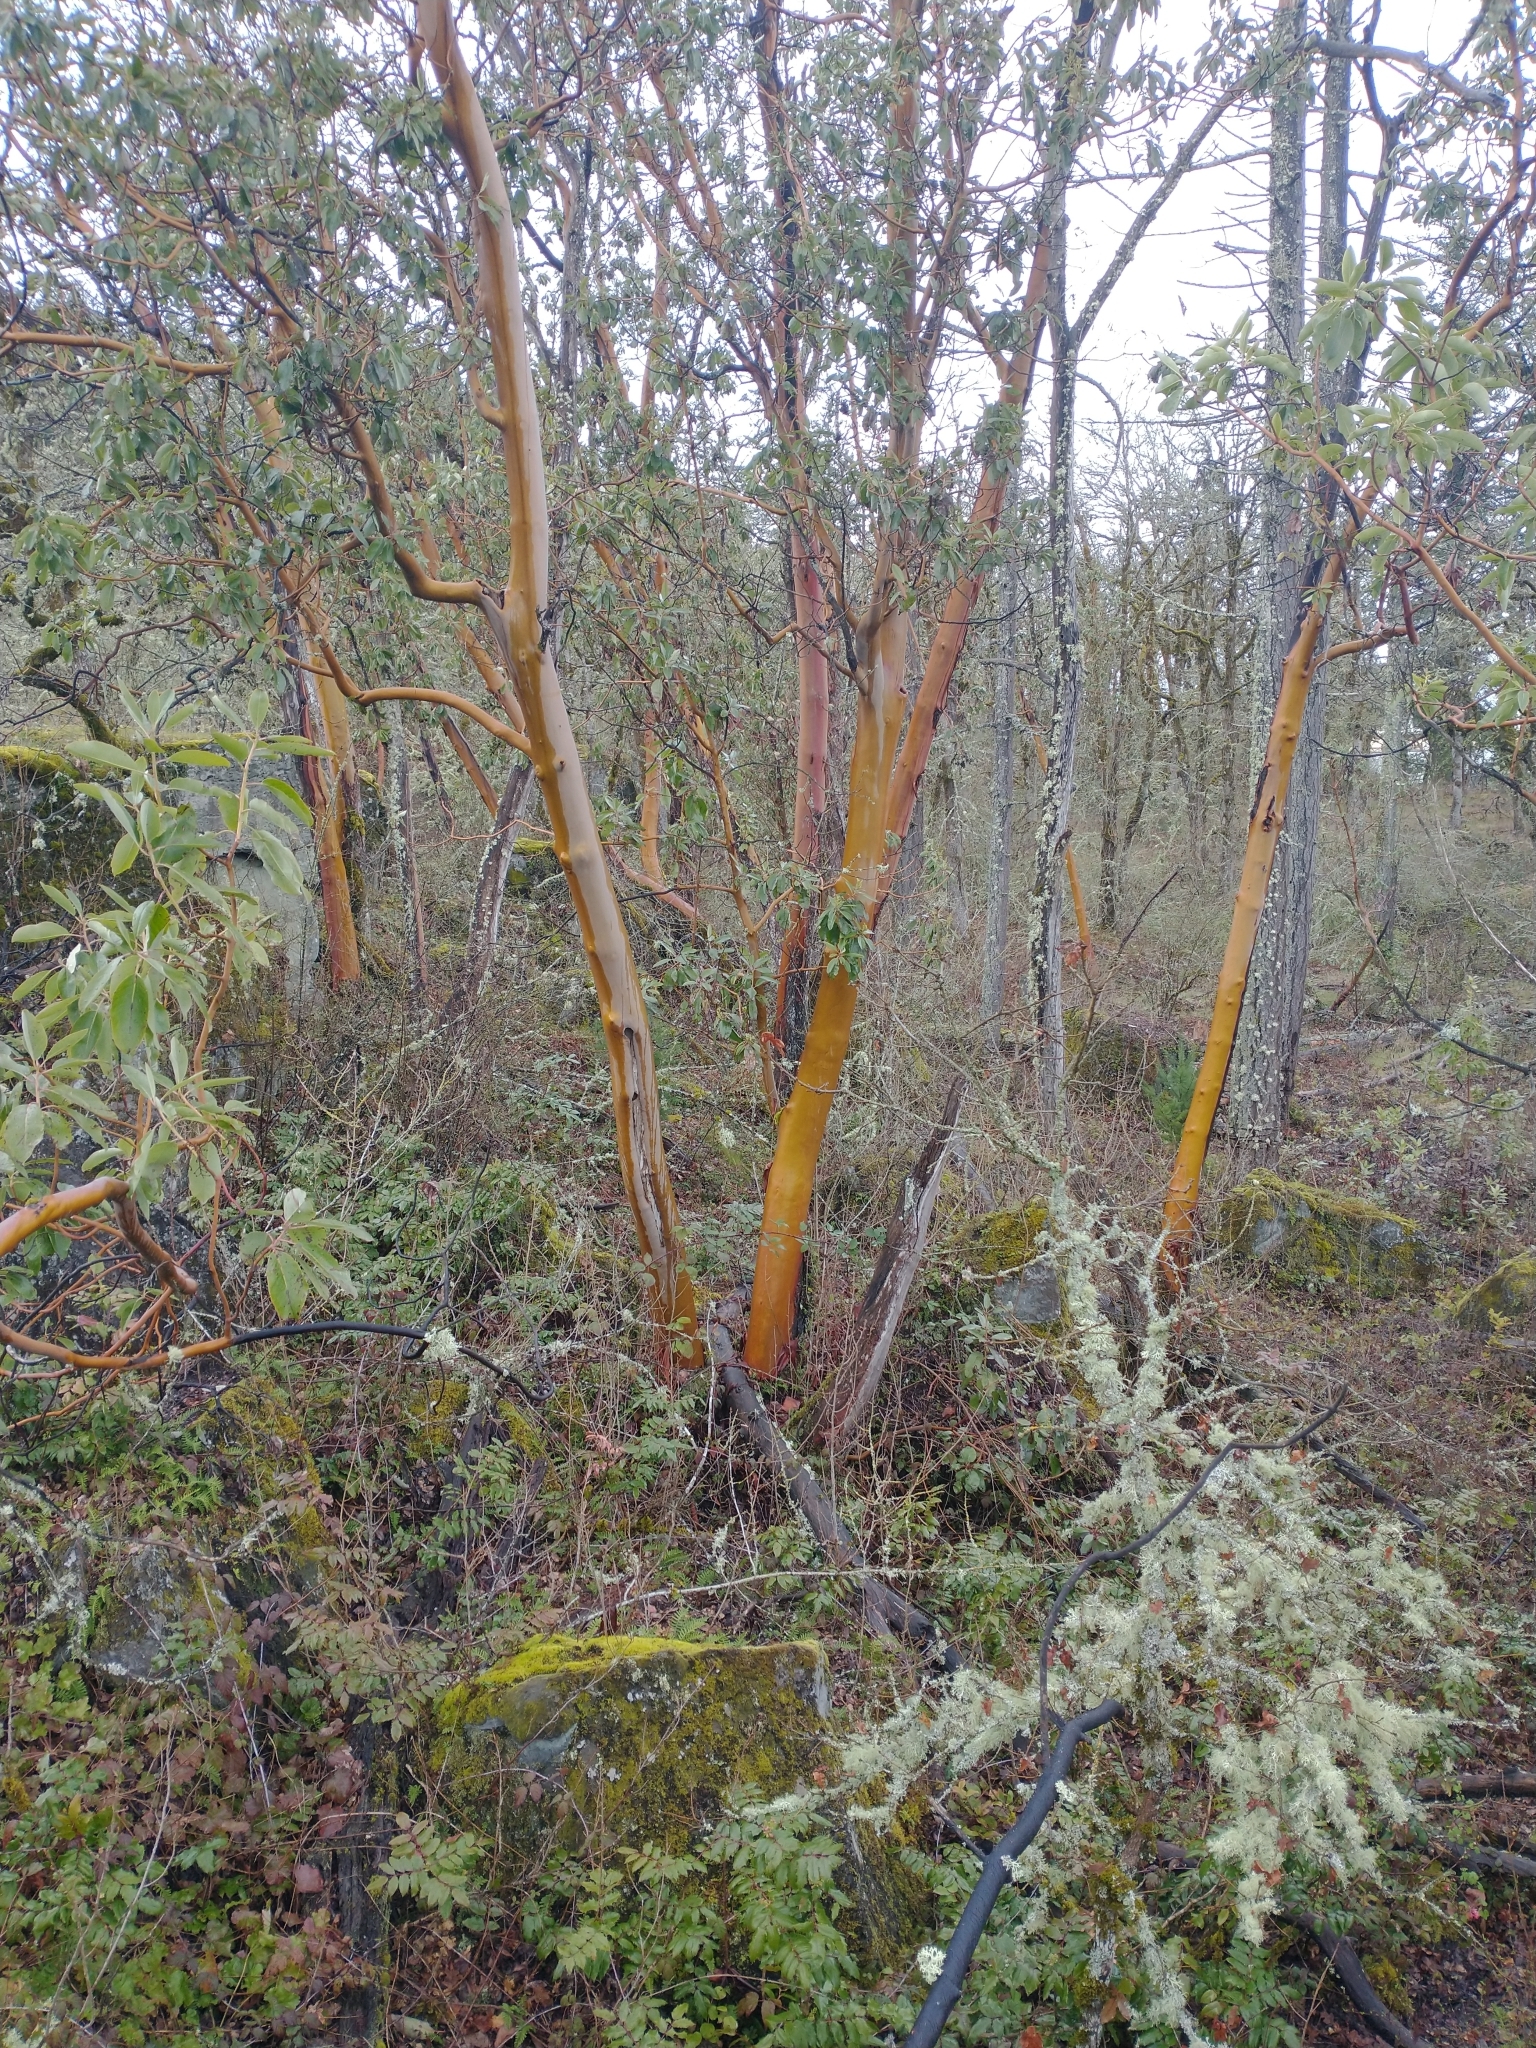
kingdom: Plantae
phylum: Tracheophyta
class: Magnoliopsida
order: Ericales
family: Ericaceae
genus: Arbutus
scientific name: Arbutus menziesii
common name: Pacific madrone
